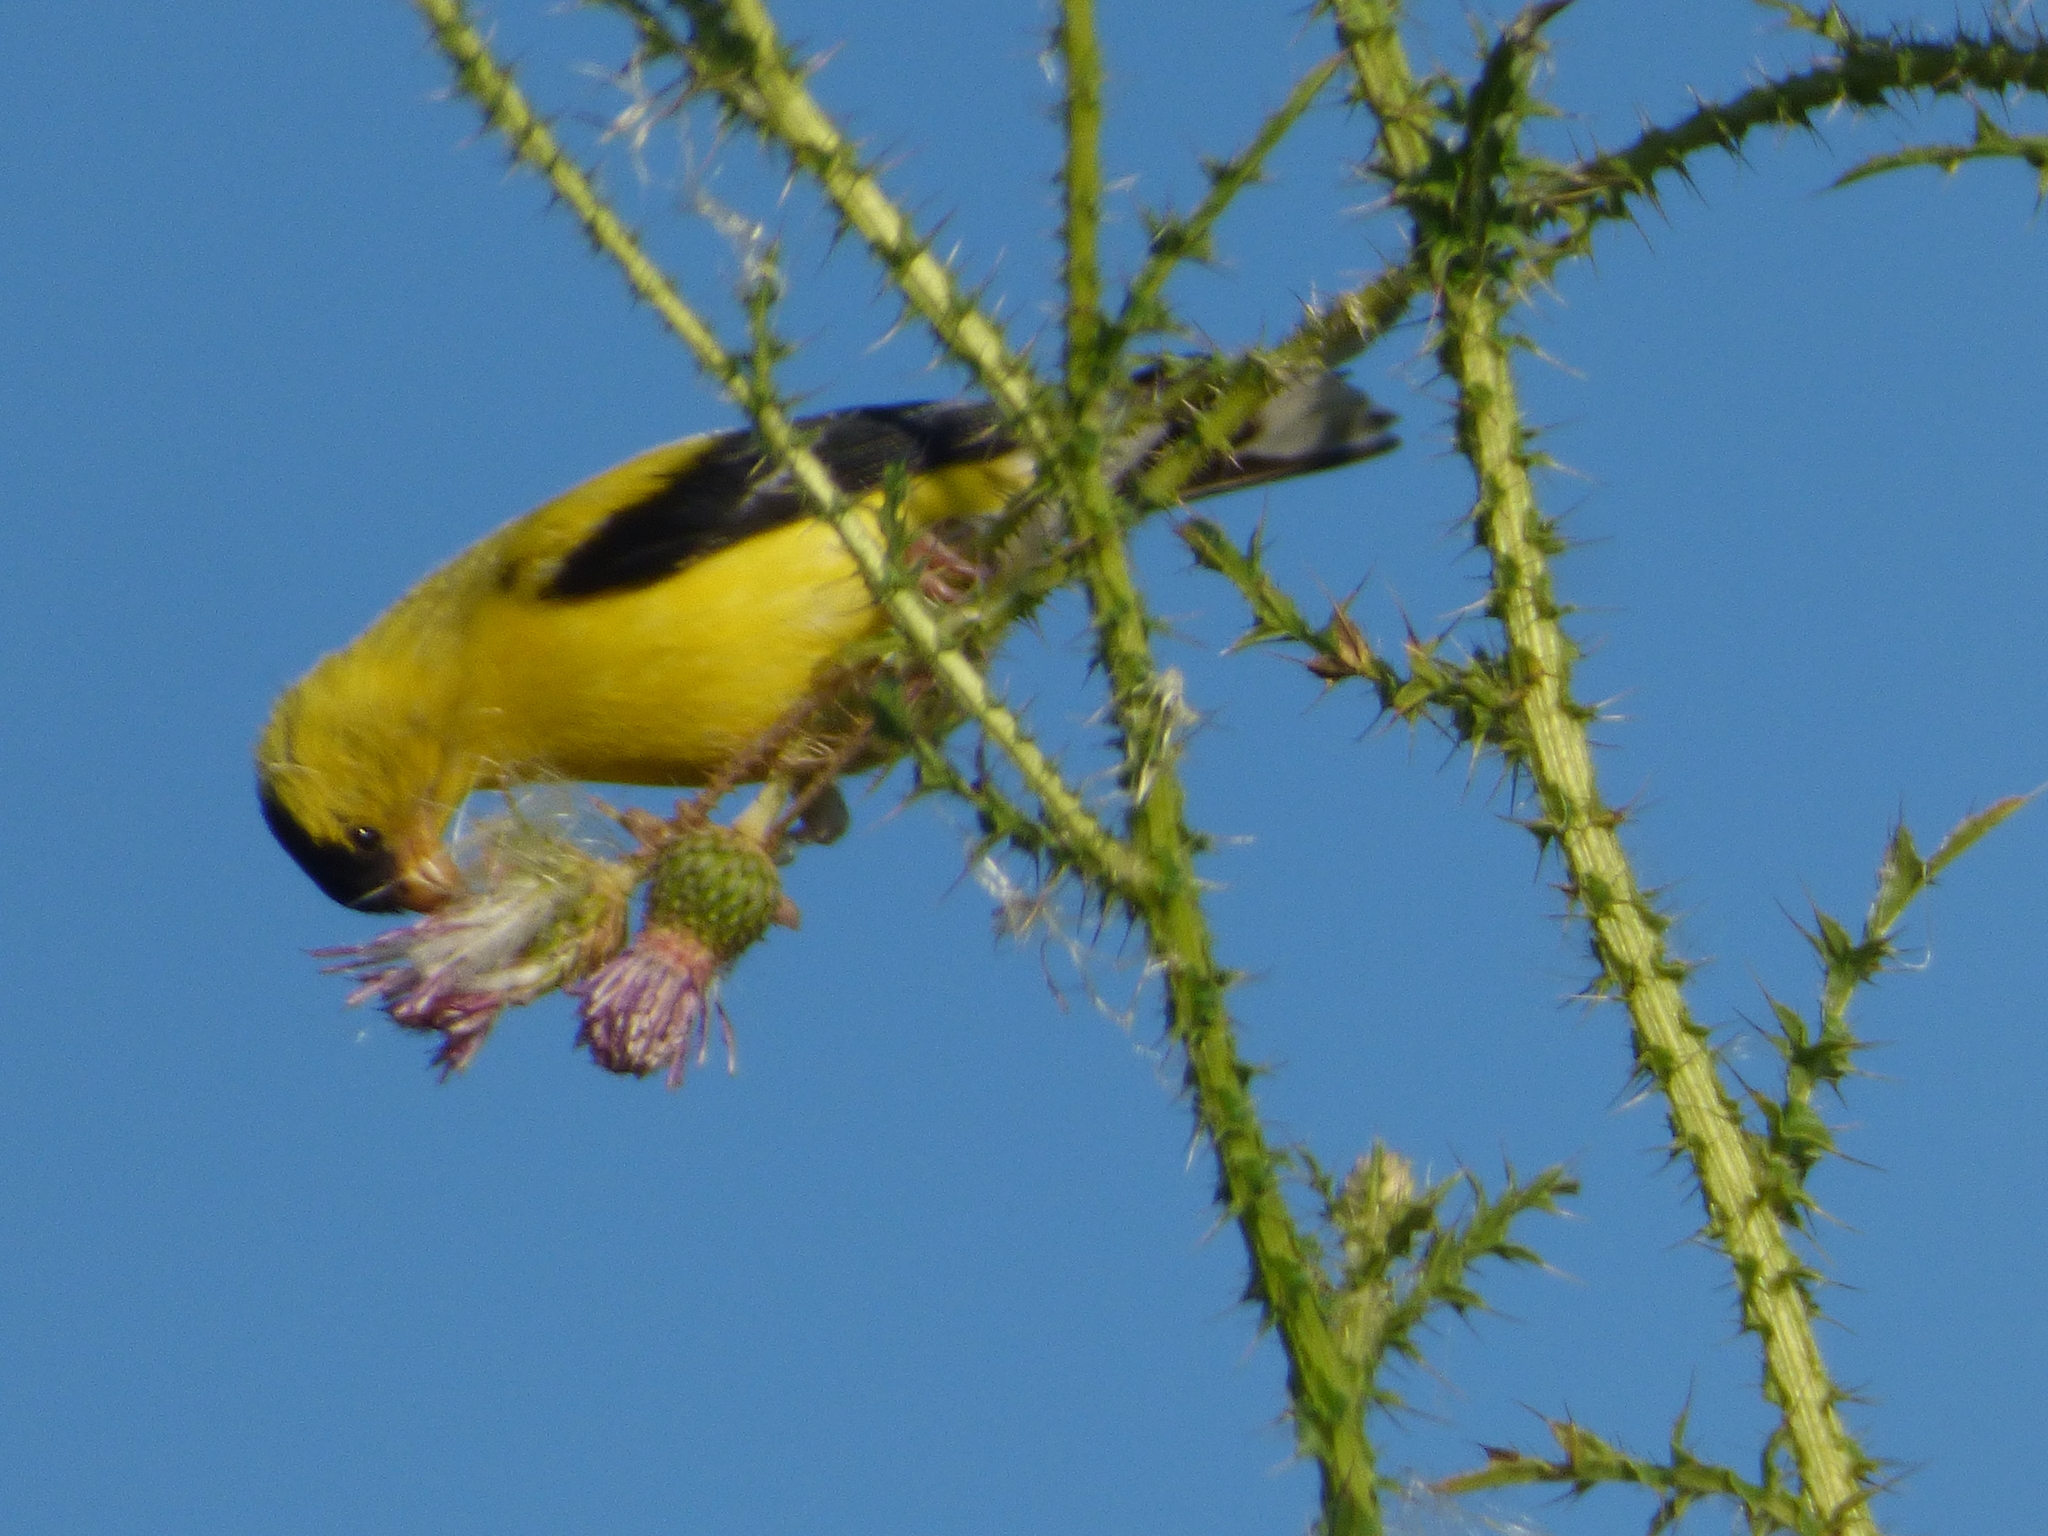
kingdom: Animalia
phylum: Chordata
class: Aves
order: Passeriformes
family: Fringillidae
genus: Spinus
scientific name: Spinus tristis
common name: American goldfinch
